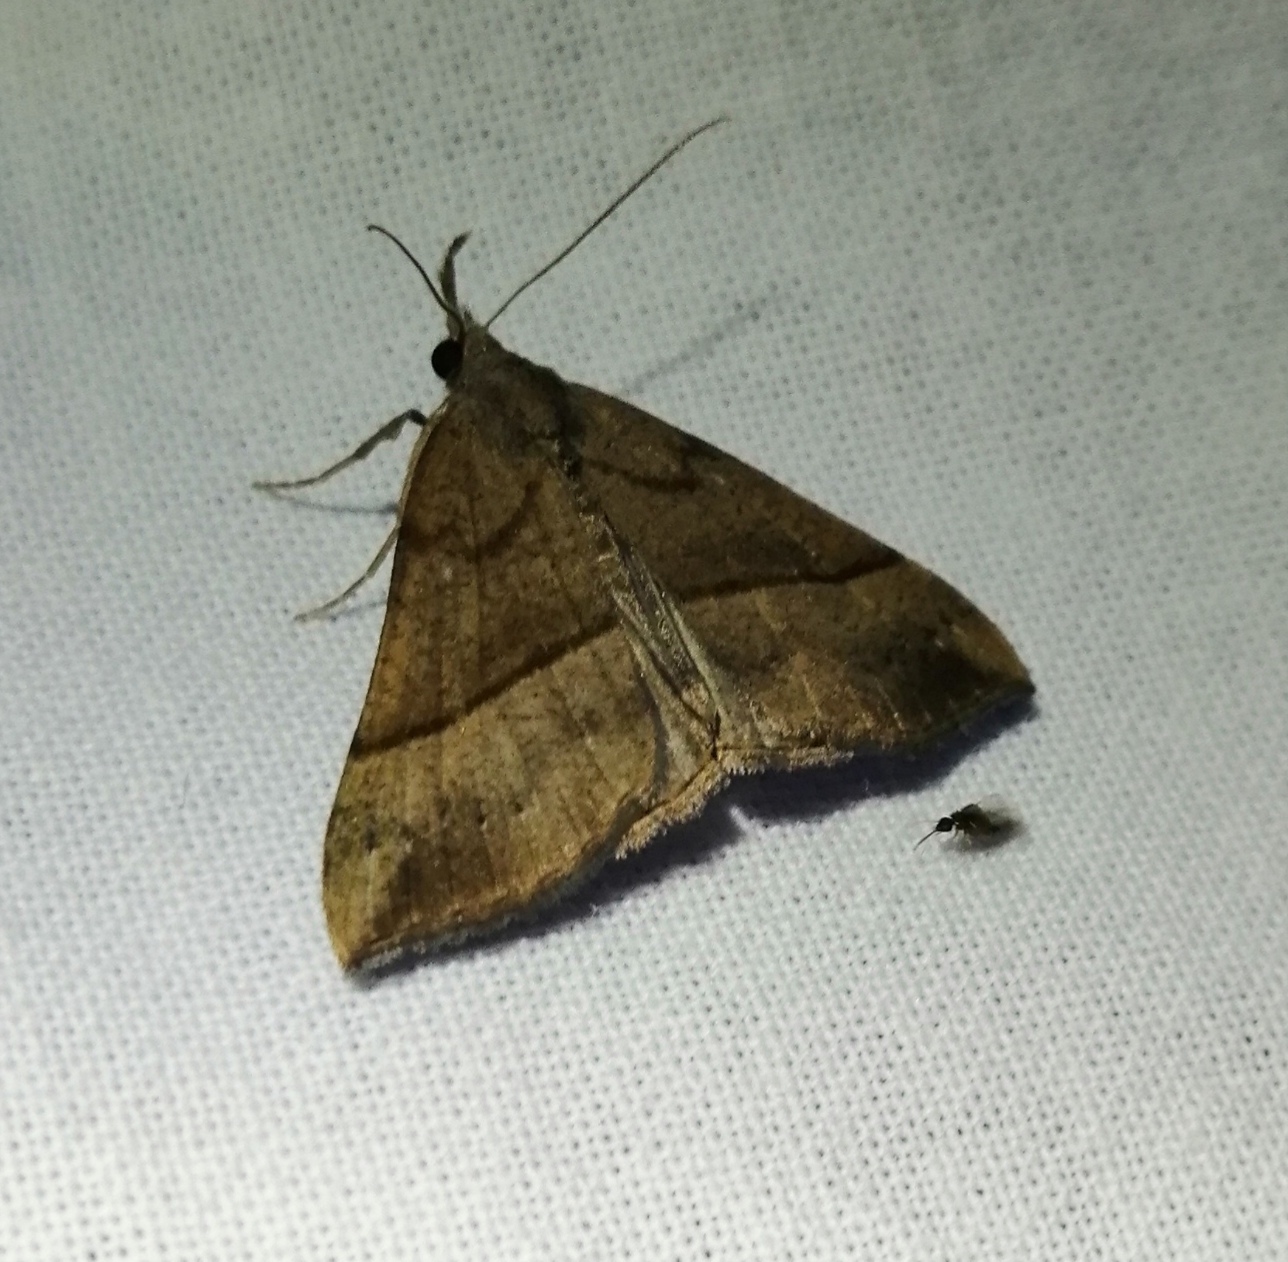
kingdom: Animalia
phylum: Arthropoda
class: Insecta
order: Lepidoptera
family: Erebidae
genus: Hypena
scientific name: Hypena proboscidalis
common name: Snout
